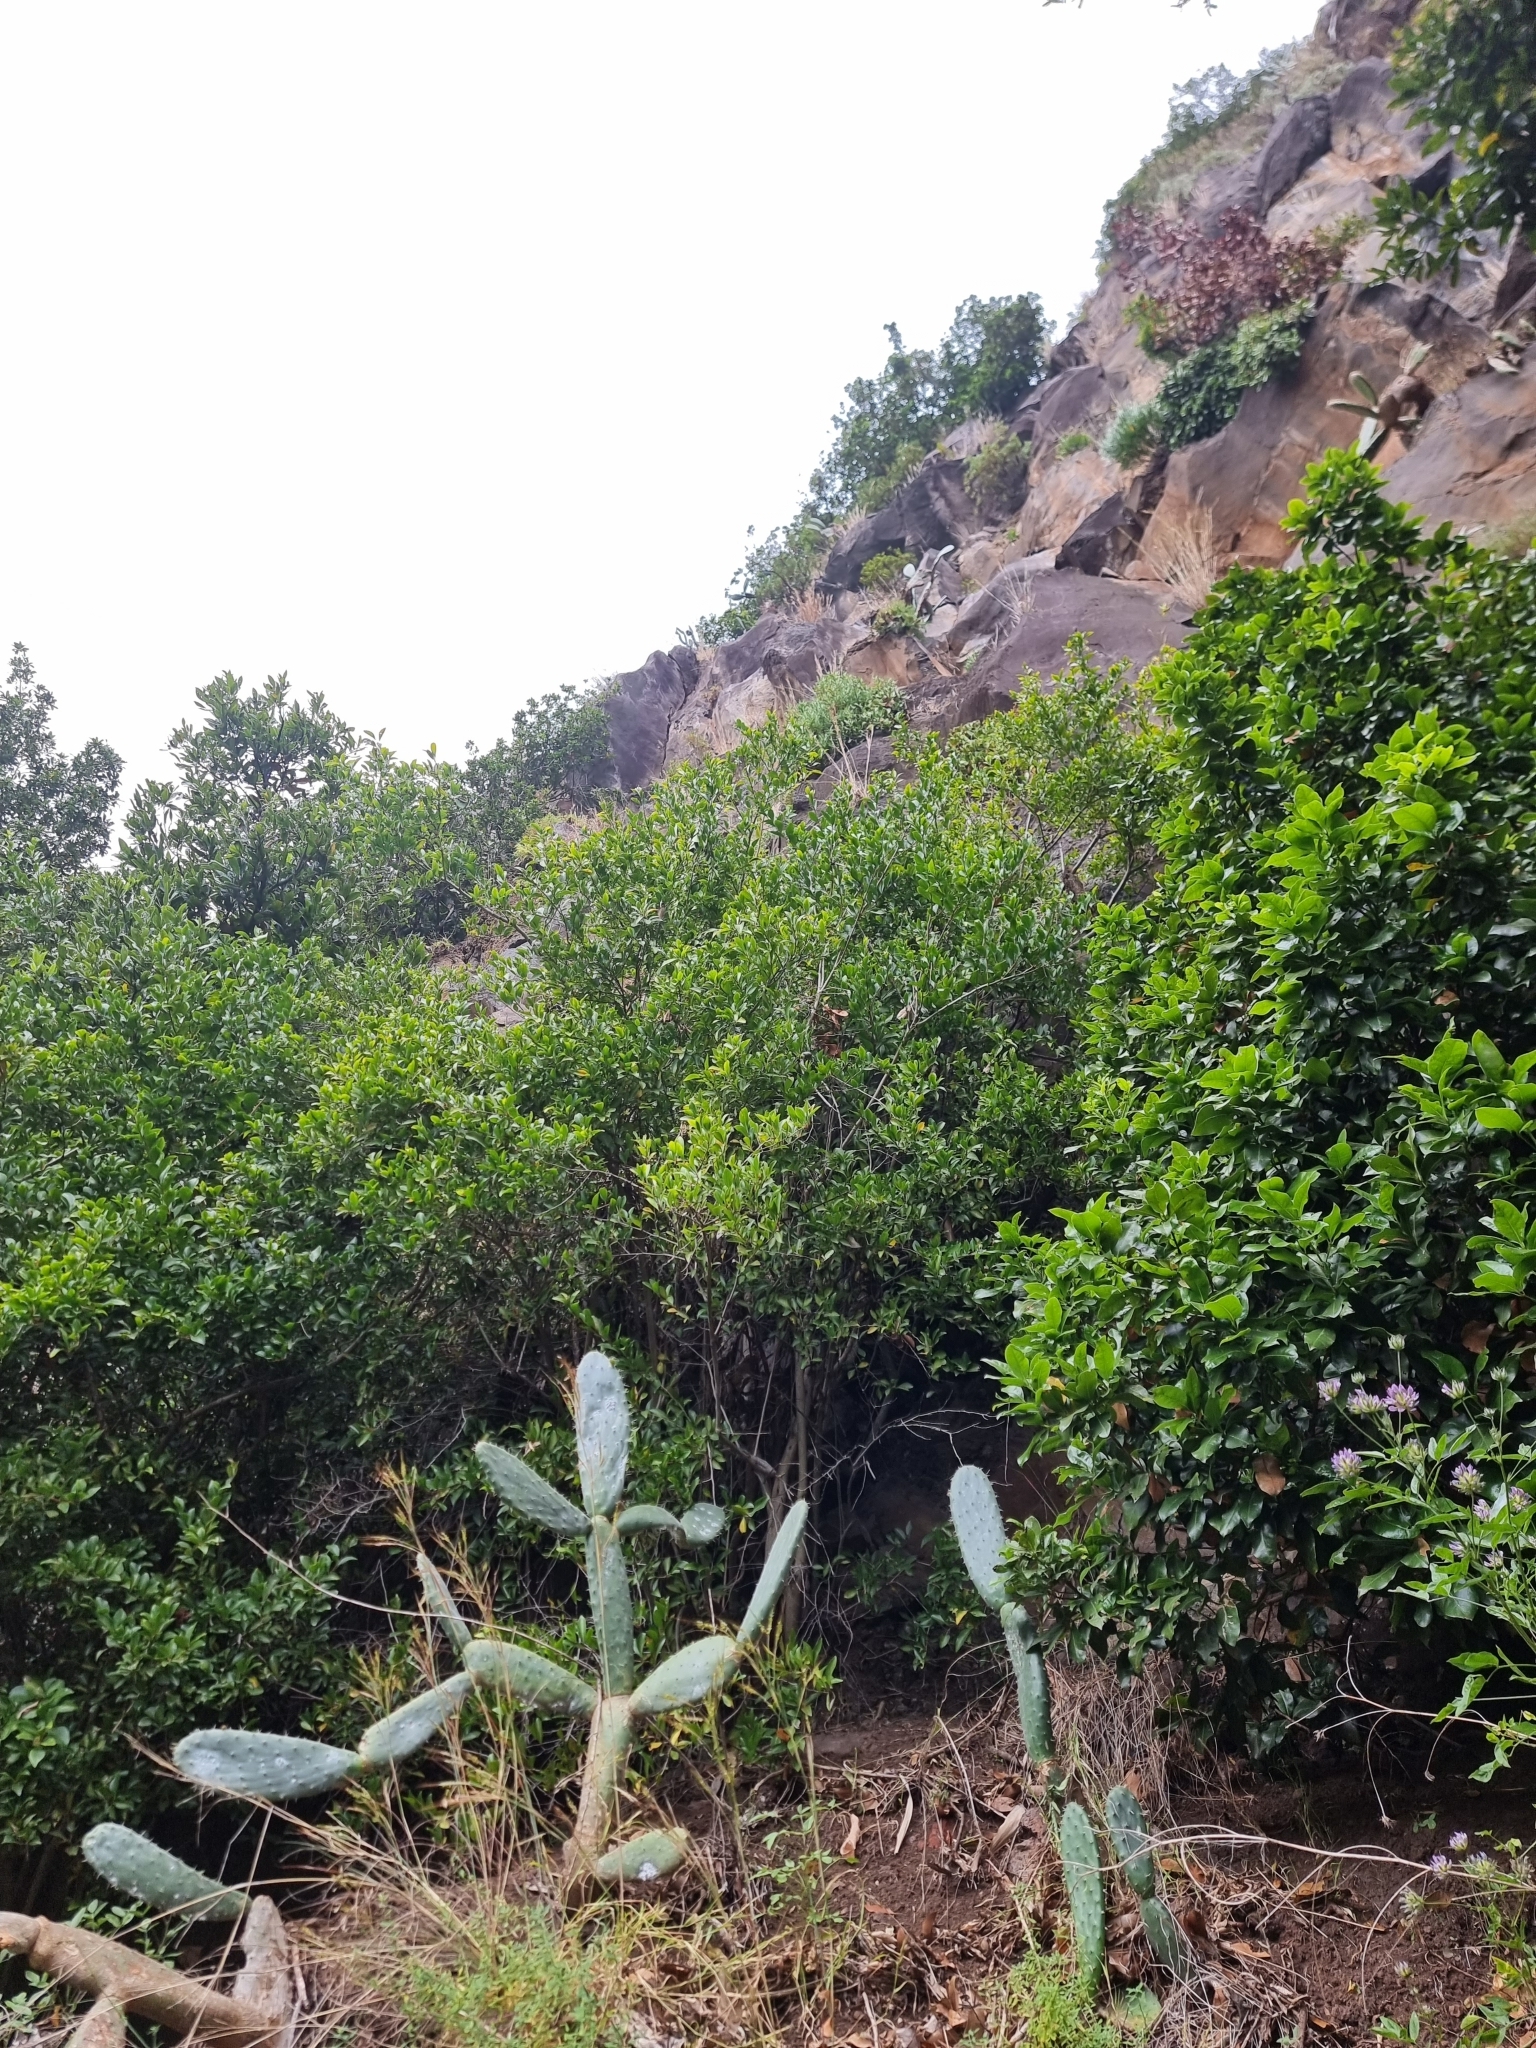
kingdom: Plantae
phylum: Tracheophyta
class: Magnoliopsida
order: Celastrales
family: Celastraceae
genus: Gymnosporia
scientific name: Gymnosporia dryandri
